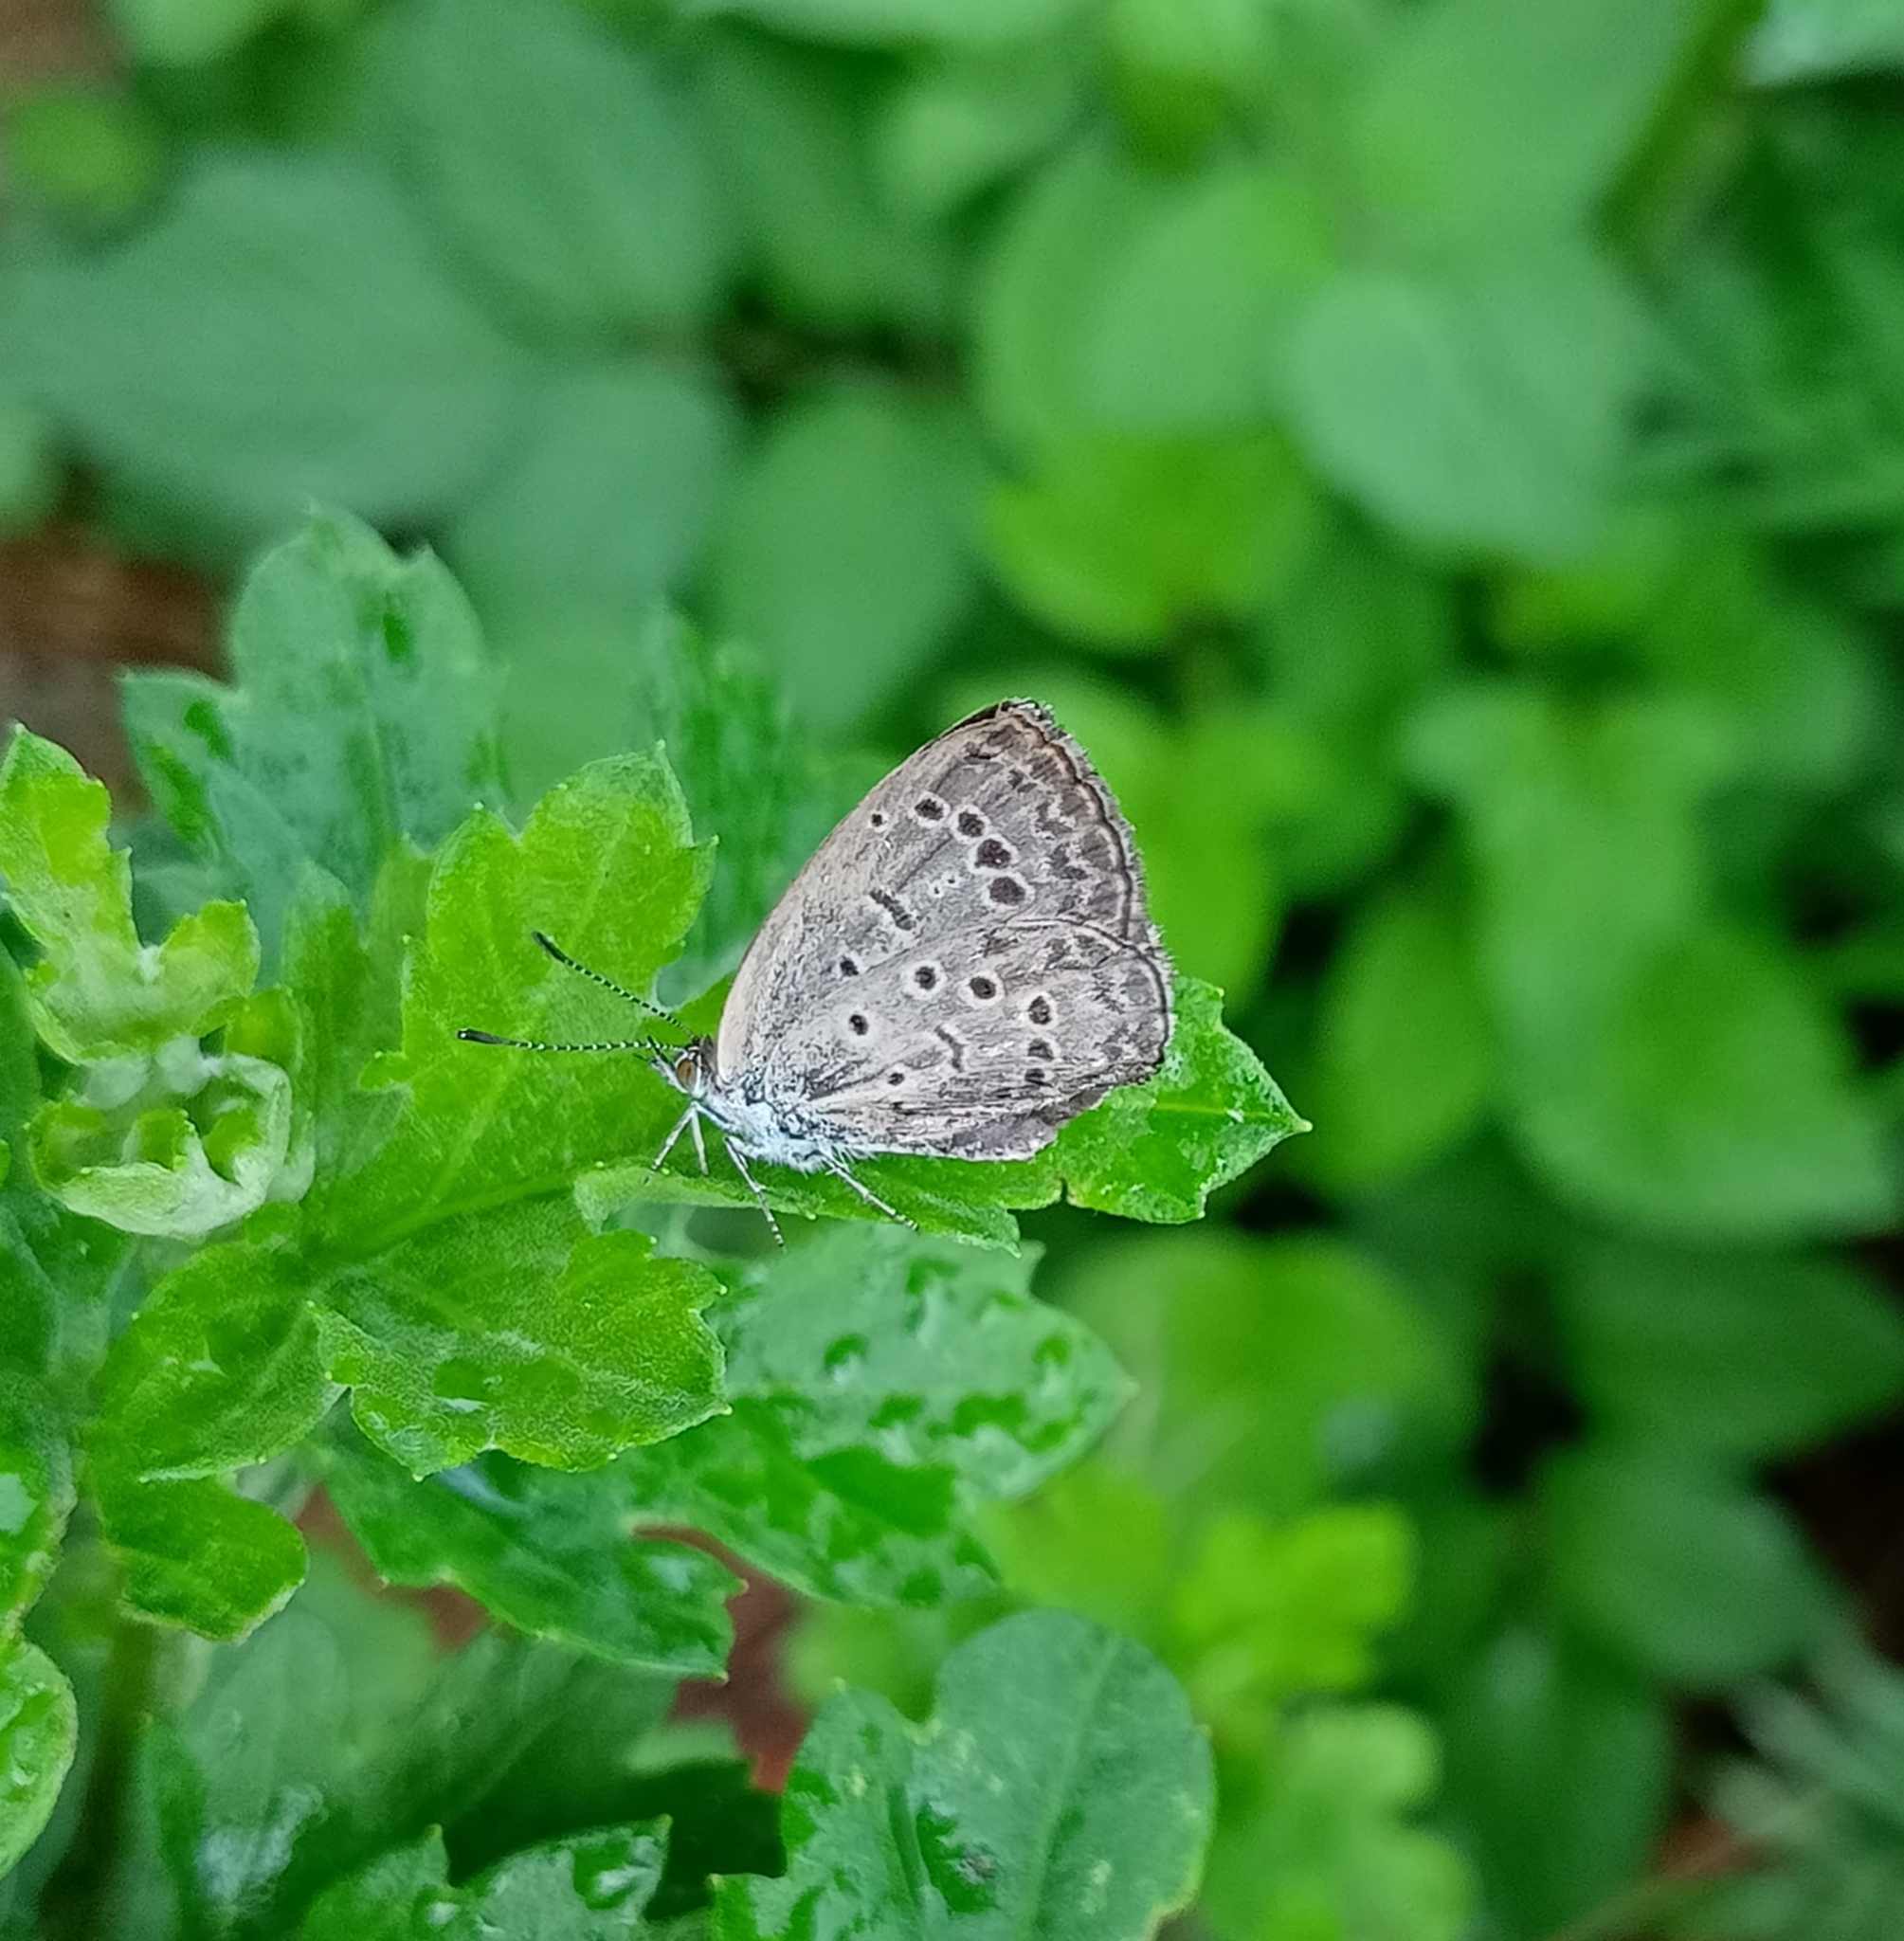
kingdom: Animalia
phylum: Arthropoda
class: Insecta
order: Lepidoptera
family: Lycaenidae
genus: Pseudozizeeria
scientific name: Pseudozizeeria maha
